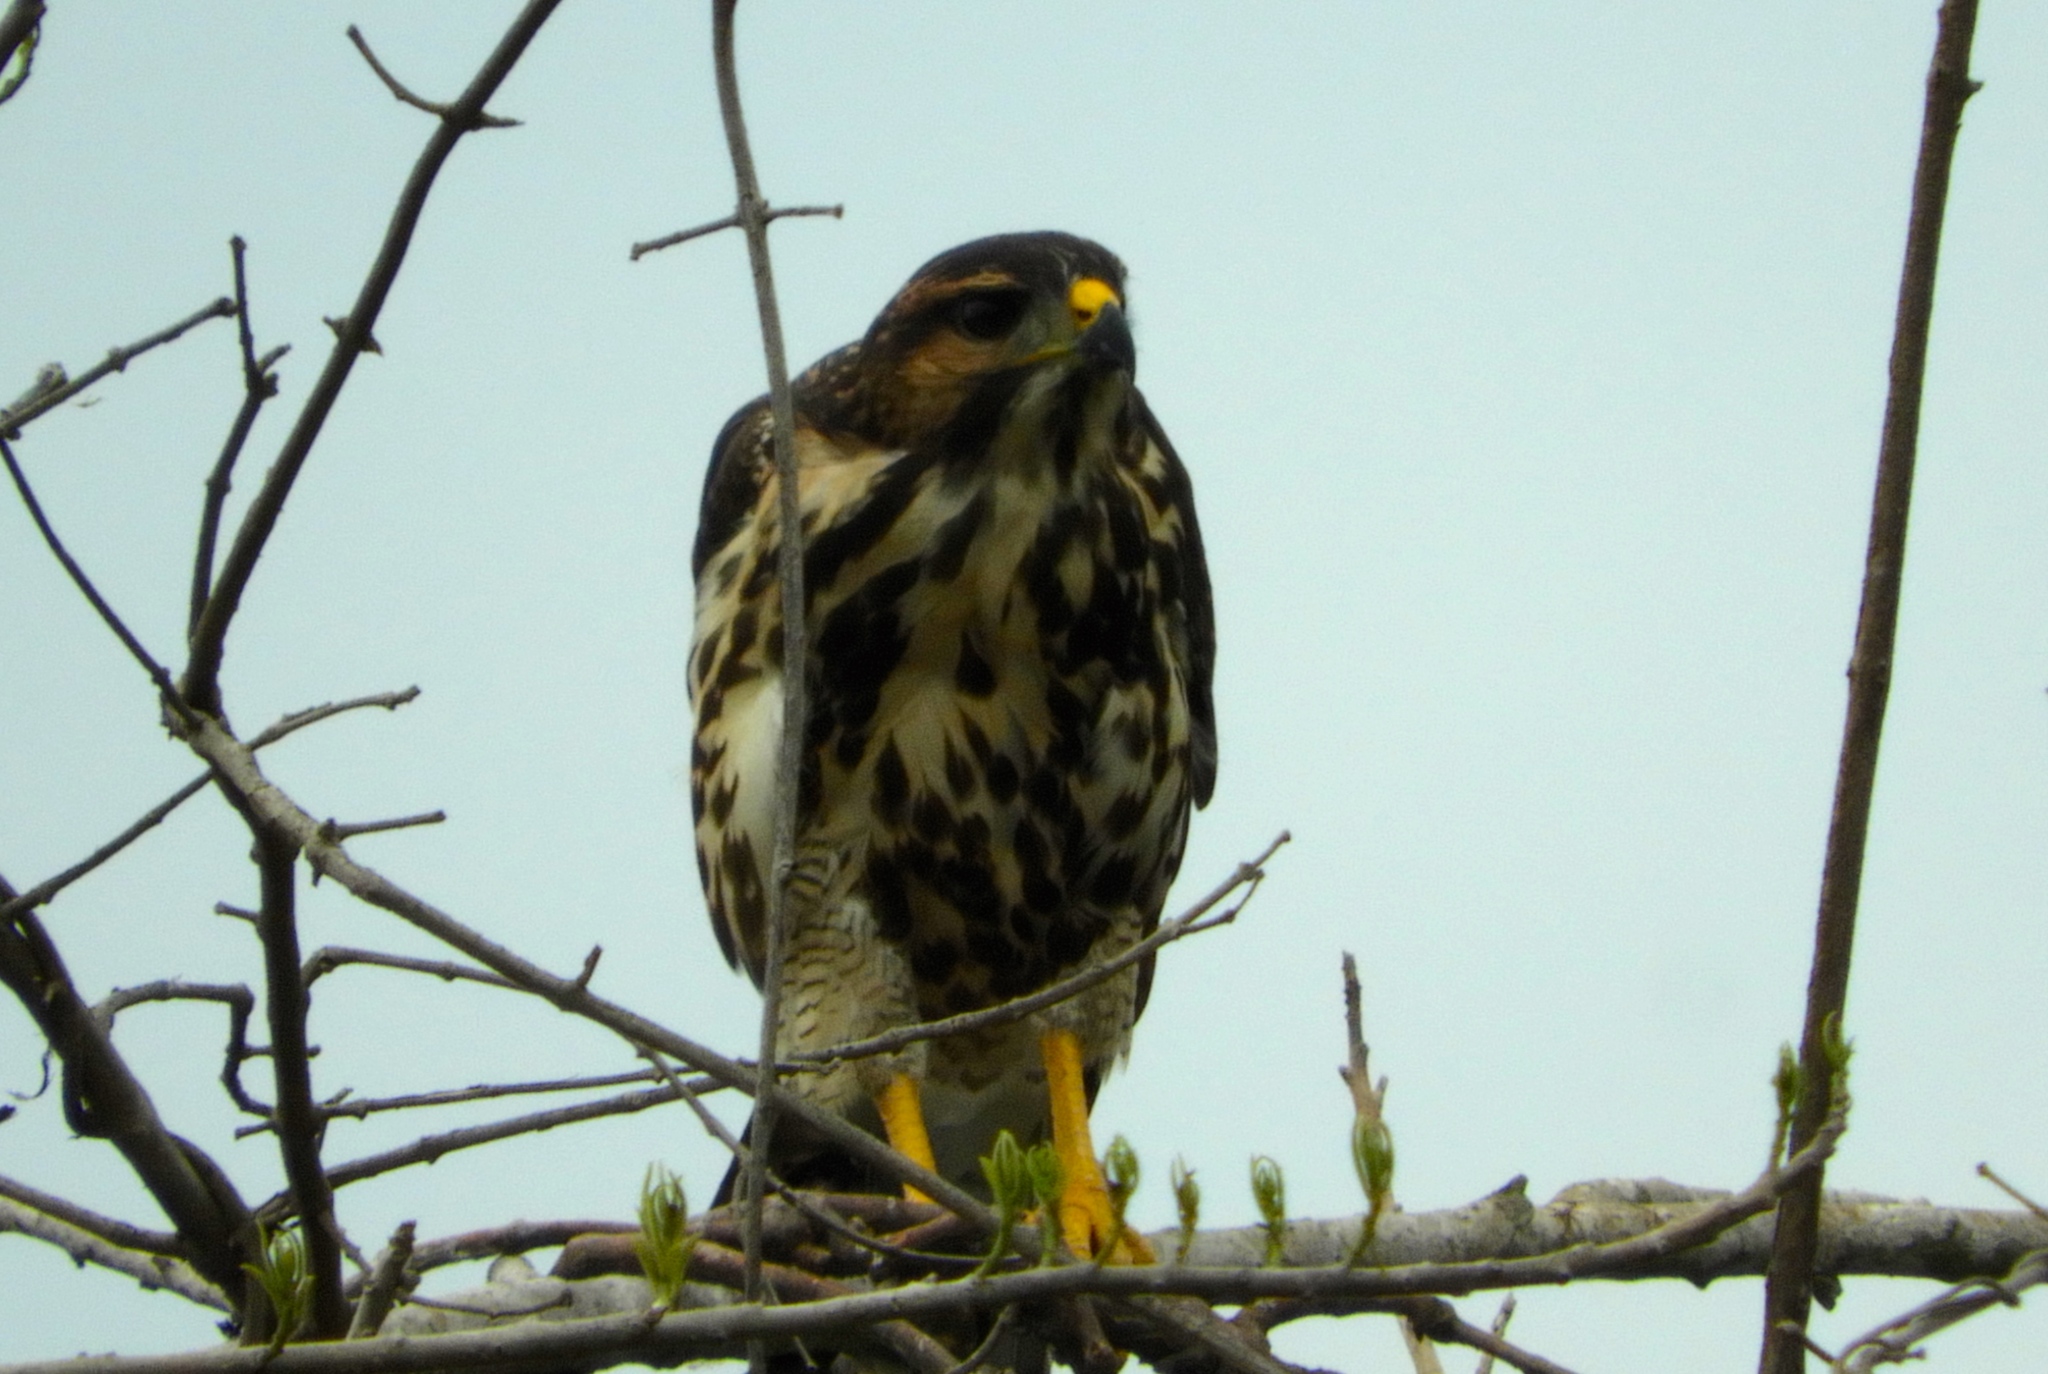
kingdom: Animalia
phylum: Chordata
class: Aves
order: Accipitriformes
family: Accipitridae
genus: Buteo
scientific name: Buteo nitidus
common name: Grey-lined hawk
